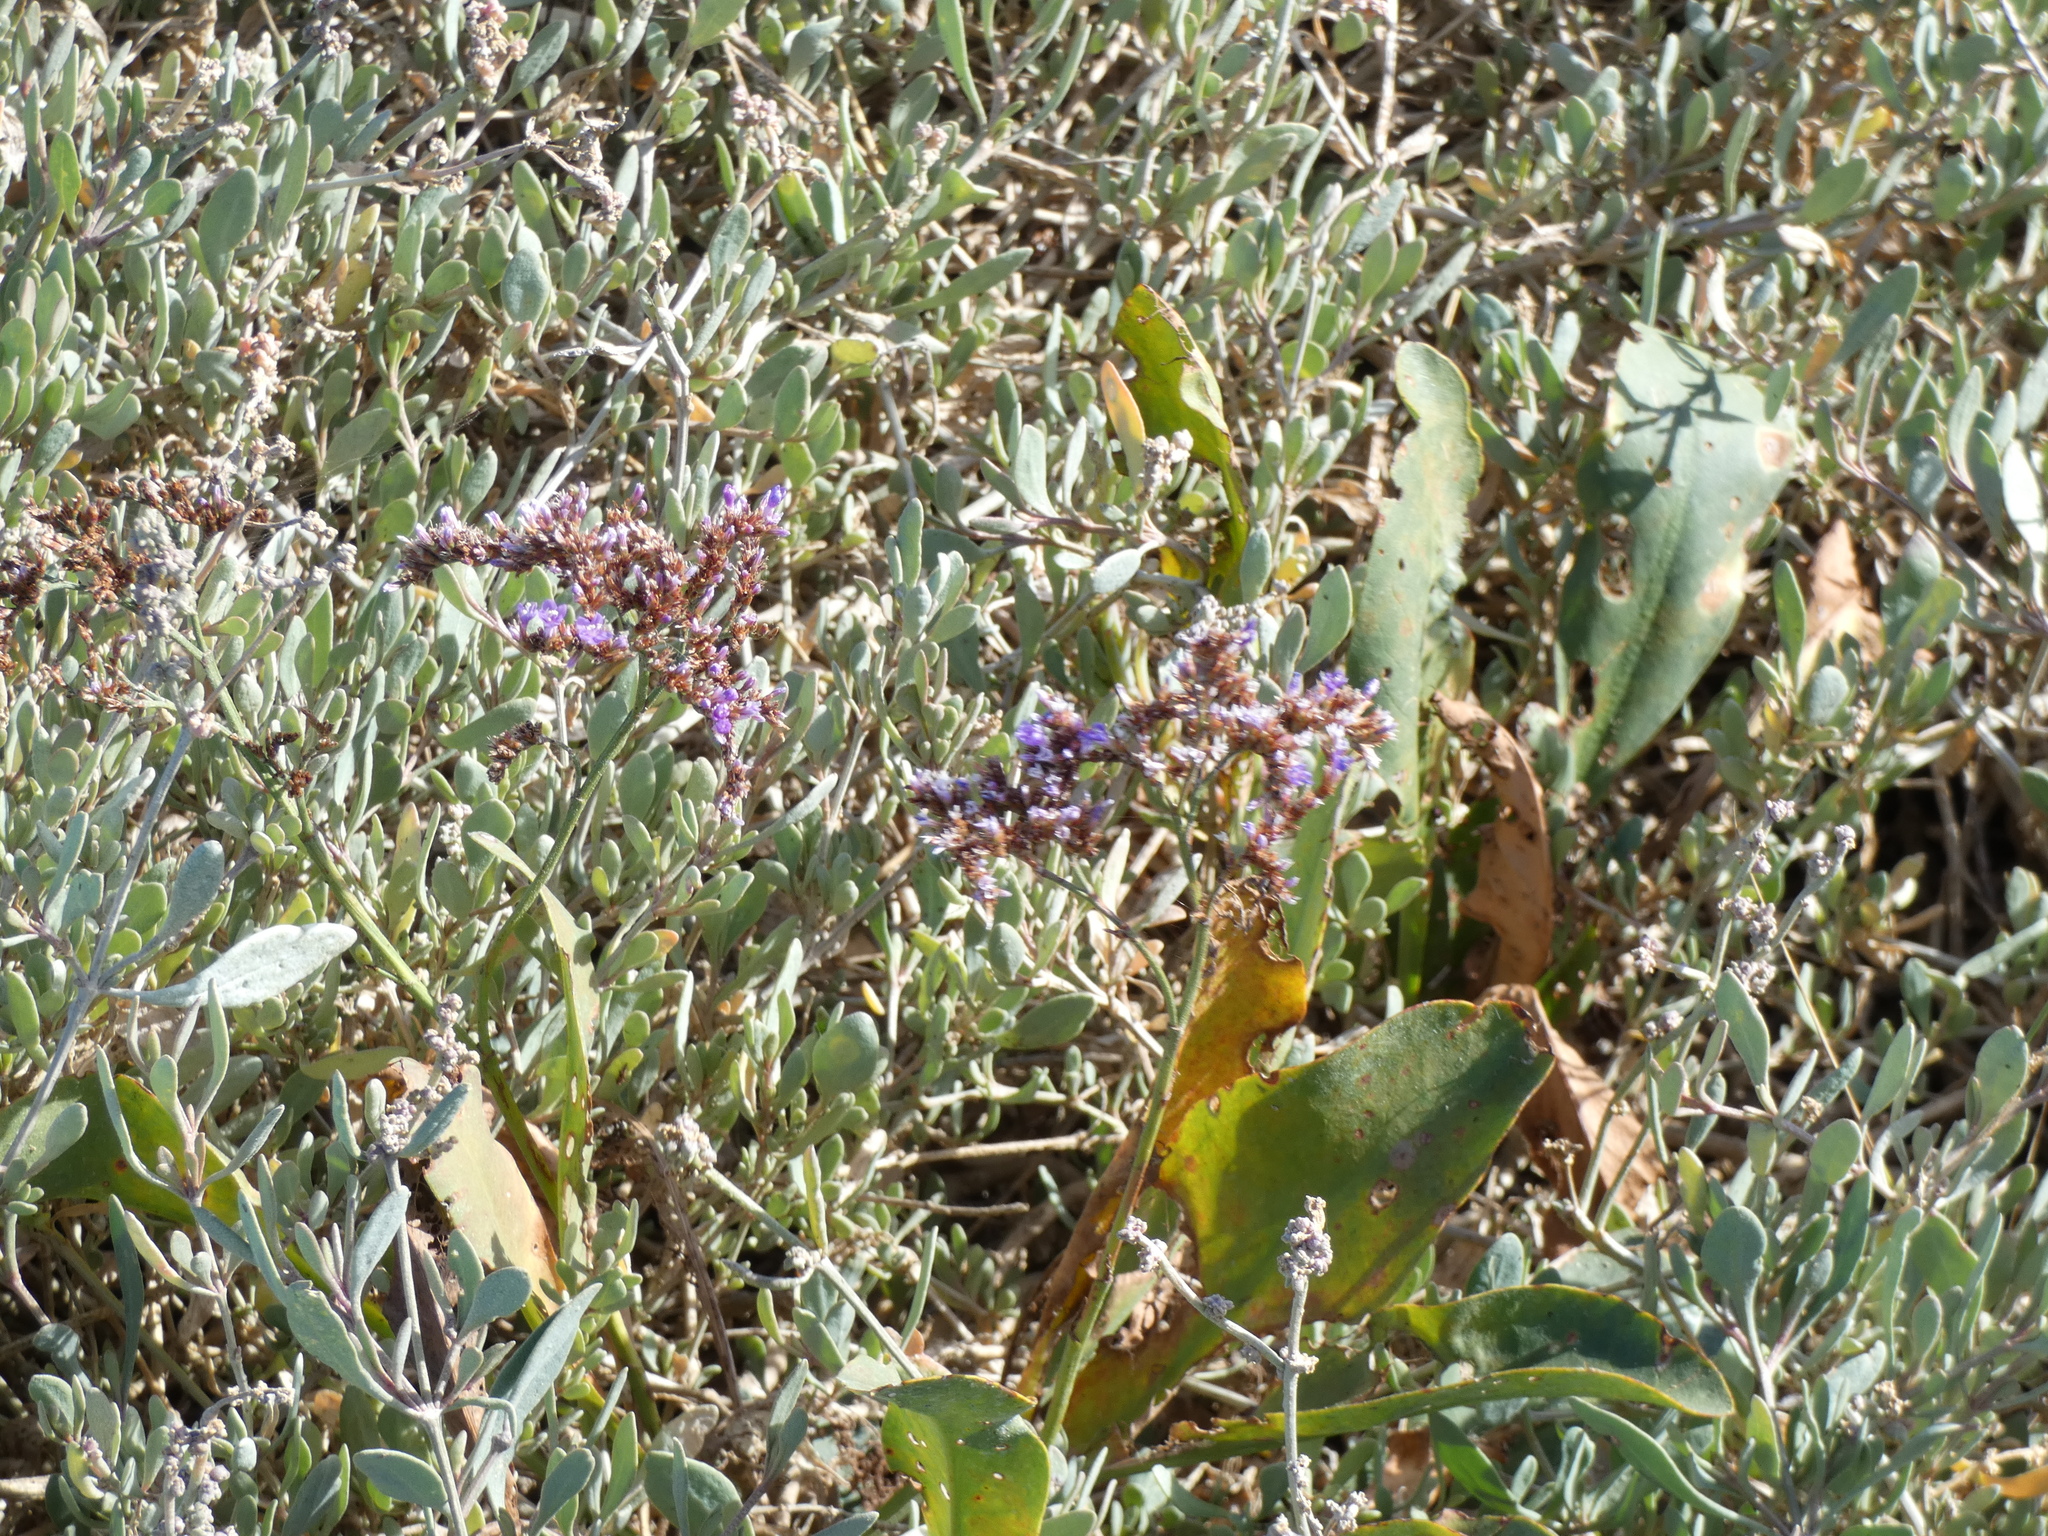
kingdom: Plantae
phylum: Tracheophyta
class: Magnoliopsida
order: Caryophyllales
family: Plumbaginaceae
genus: Limonium
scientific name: Limonium vulgare
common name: Common sea-lavender
